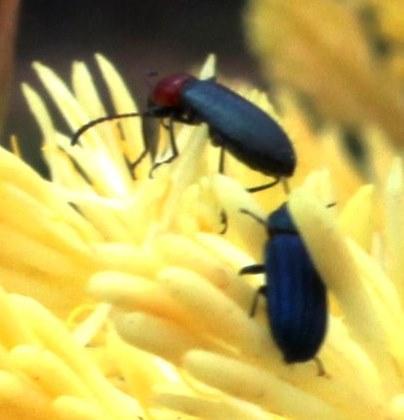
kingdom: Animalia
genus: Neoeutrapela
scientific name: Neoeutrapela
